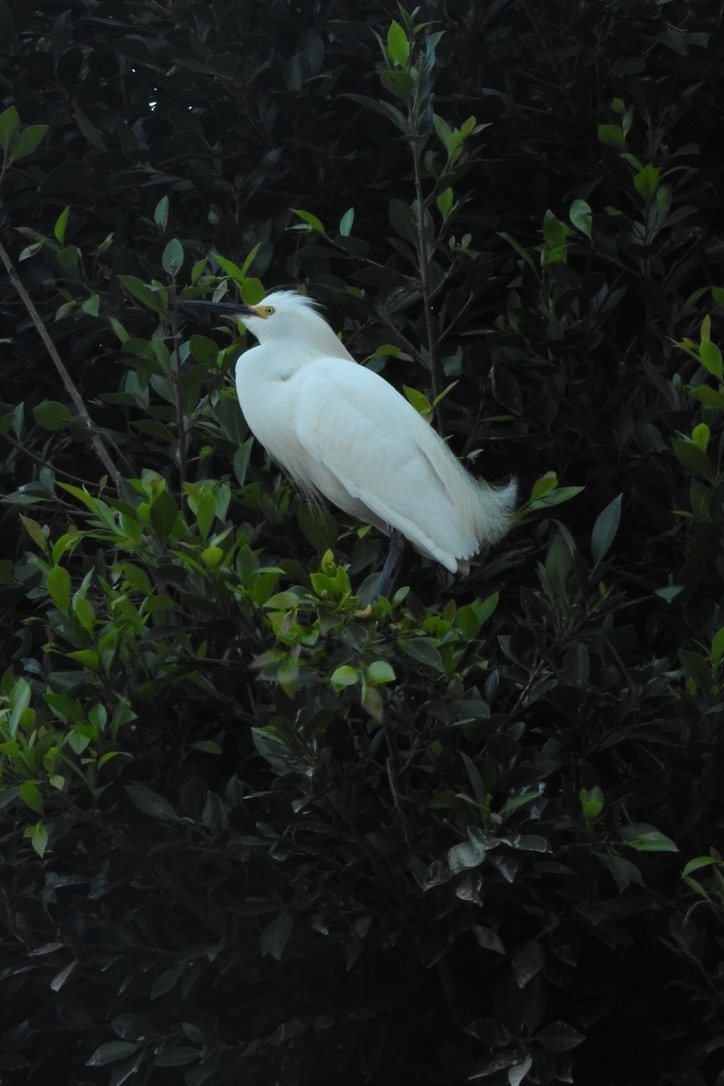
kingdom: Animalia
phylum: Chordata
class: Aves
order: Pelecaniformes
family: Ardeidae
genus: Egretta
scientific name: Egretta thula
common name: Snowy egret
